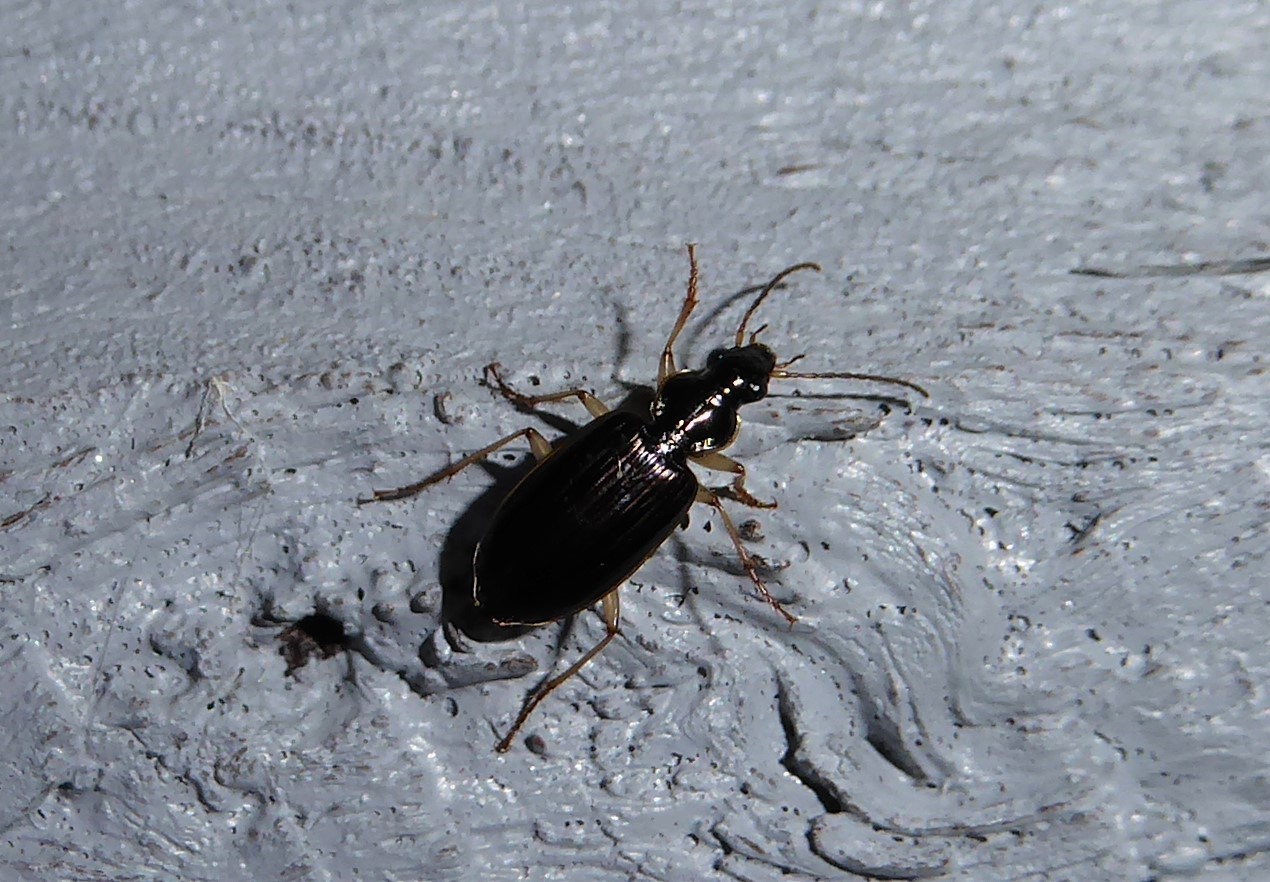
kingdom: Animalia
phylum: Arthropoda
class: Insecta
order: Coleoptera
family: Carabidae
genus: Notagonum
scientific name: Notagonum submetallicum
